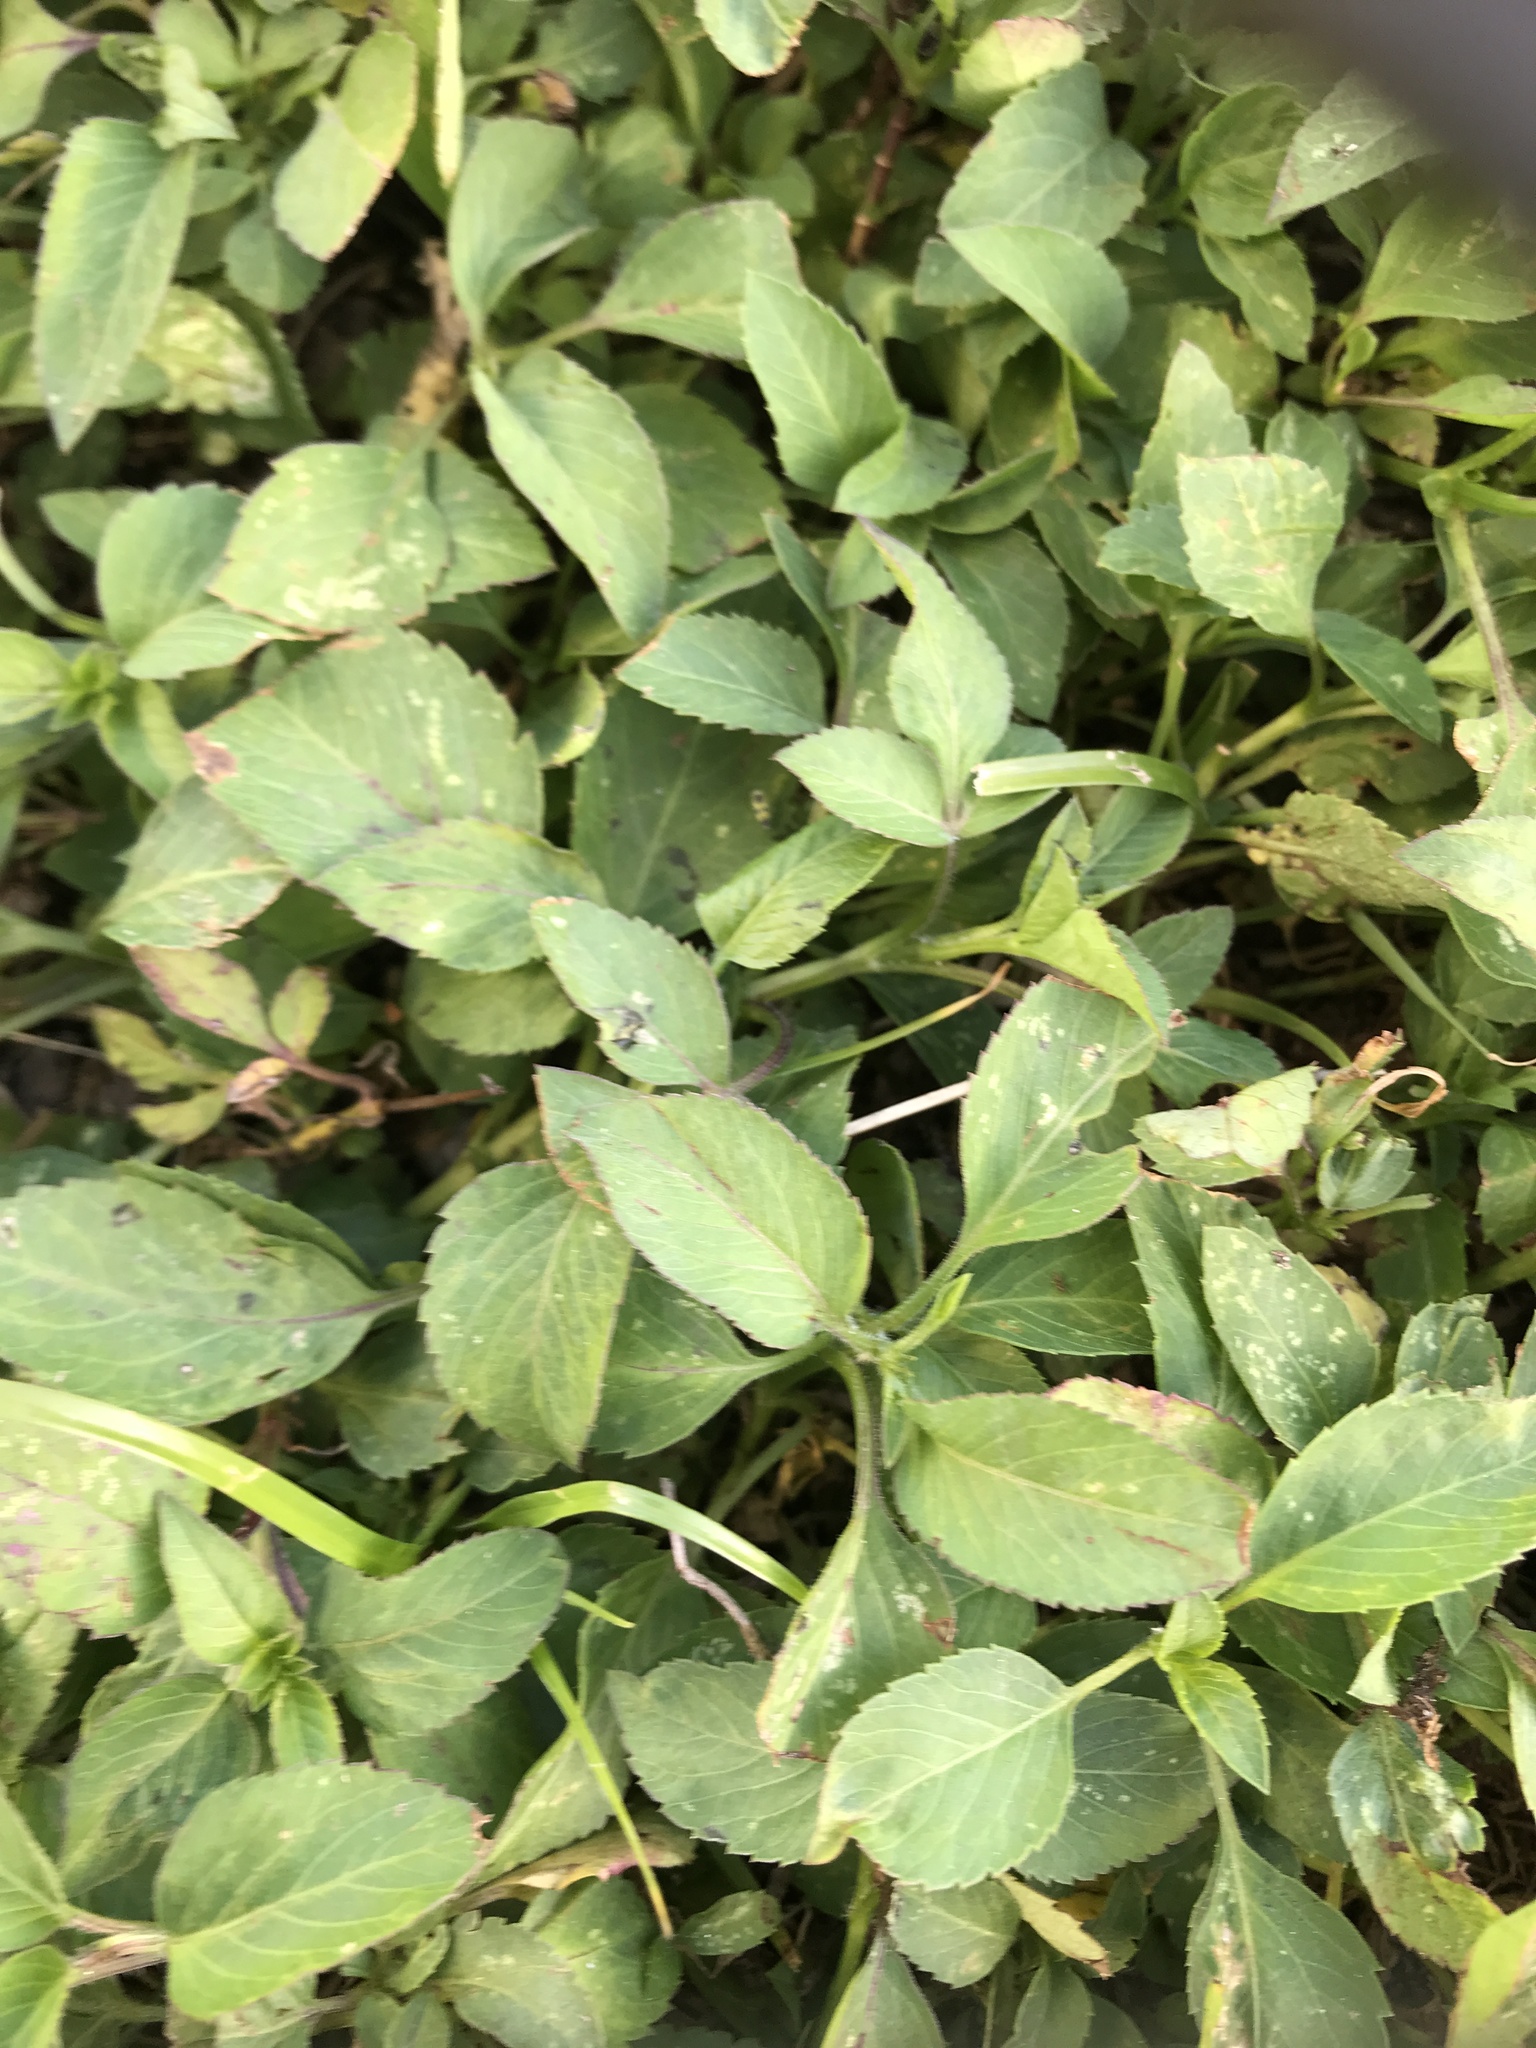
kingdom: Plantae
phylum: Tracheophyta
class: Magnoliopsida
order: Asterales
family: Asteraceae
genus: Bidens
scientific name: Bidens alba
